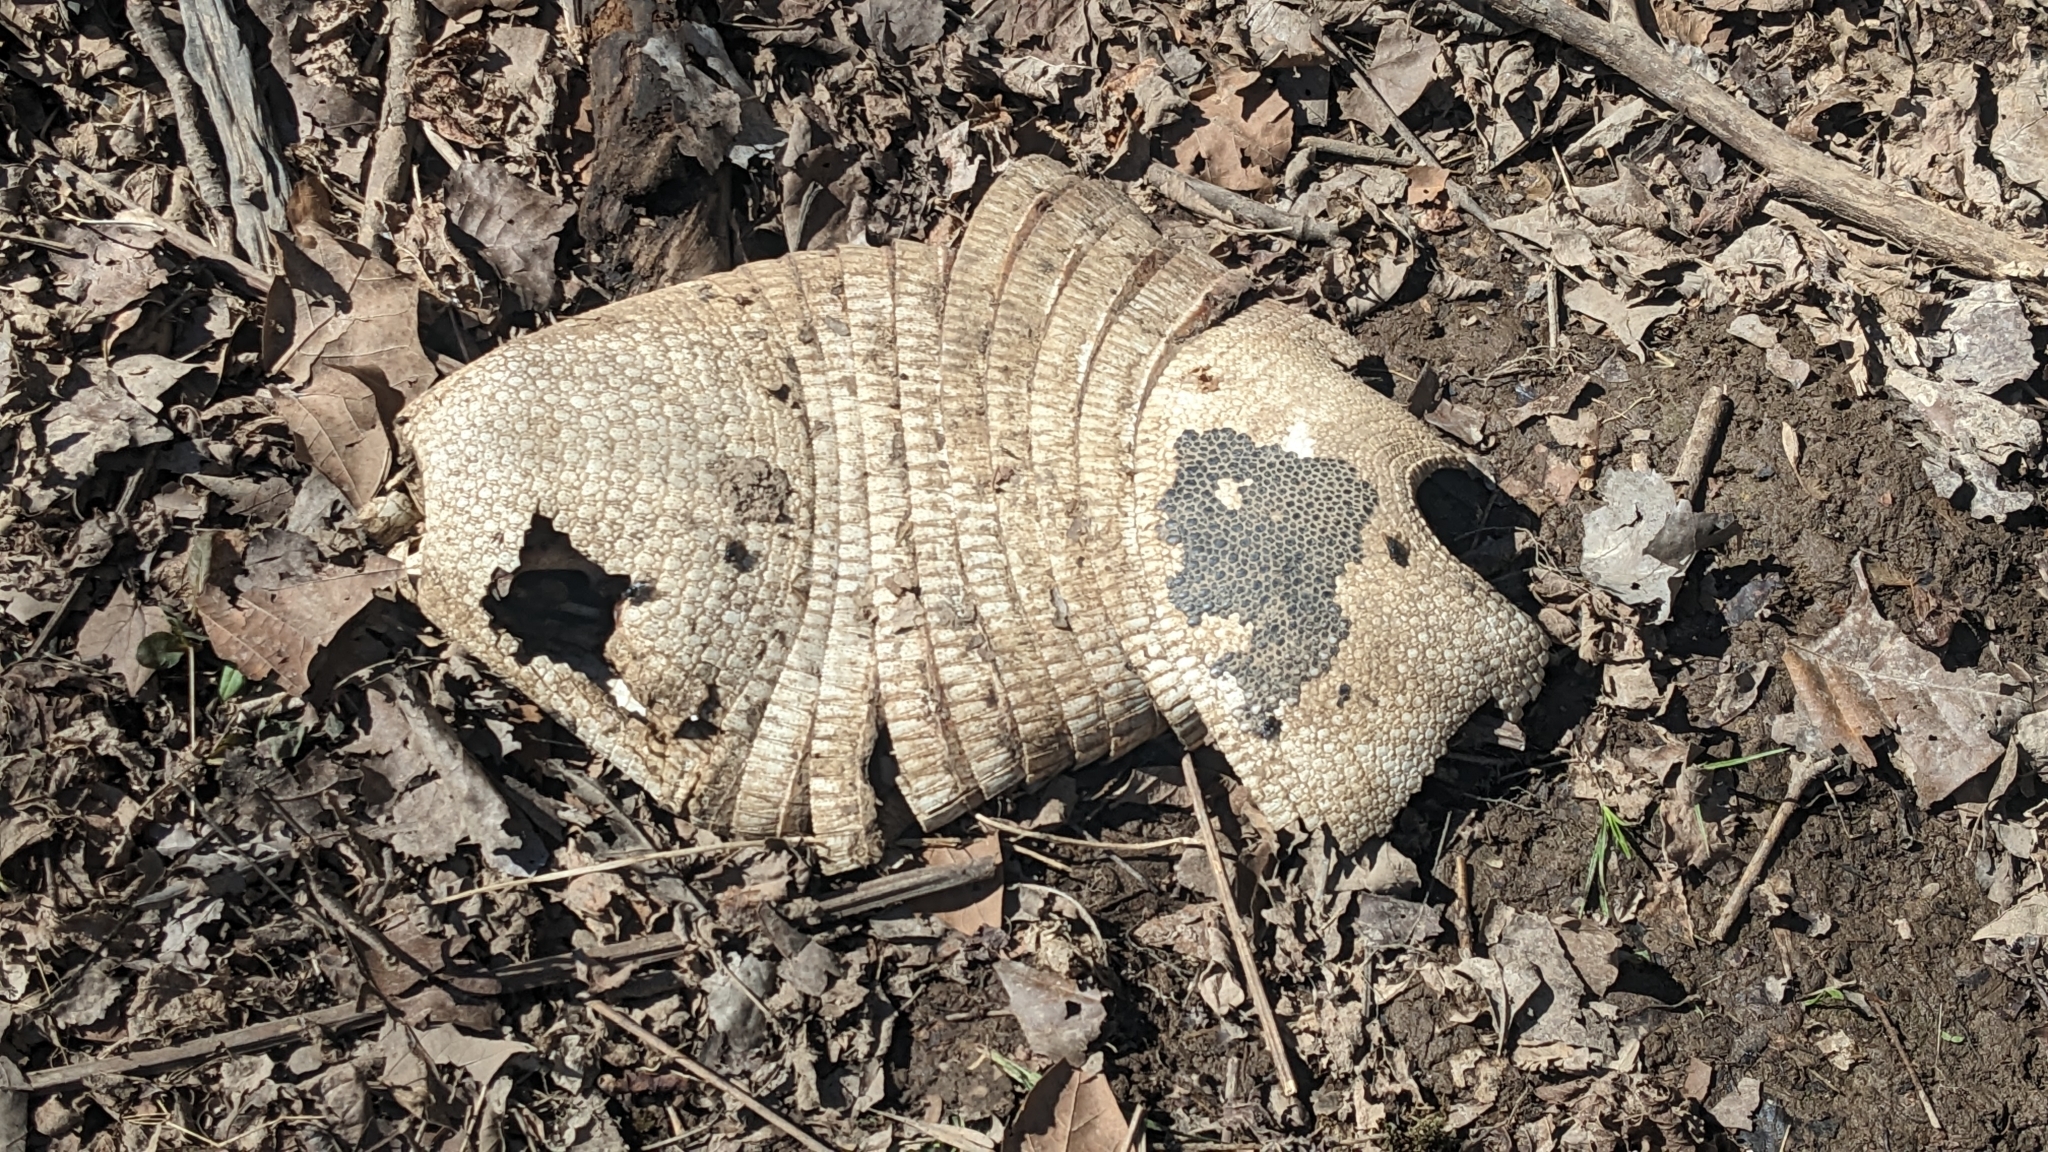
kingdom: Animalia
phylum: Chordata
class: Mammalia
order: Cingulata
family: Dasypodidae
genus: Dasypus
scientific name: Dasypus novemcinctus
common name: Nine-banded armadillo
